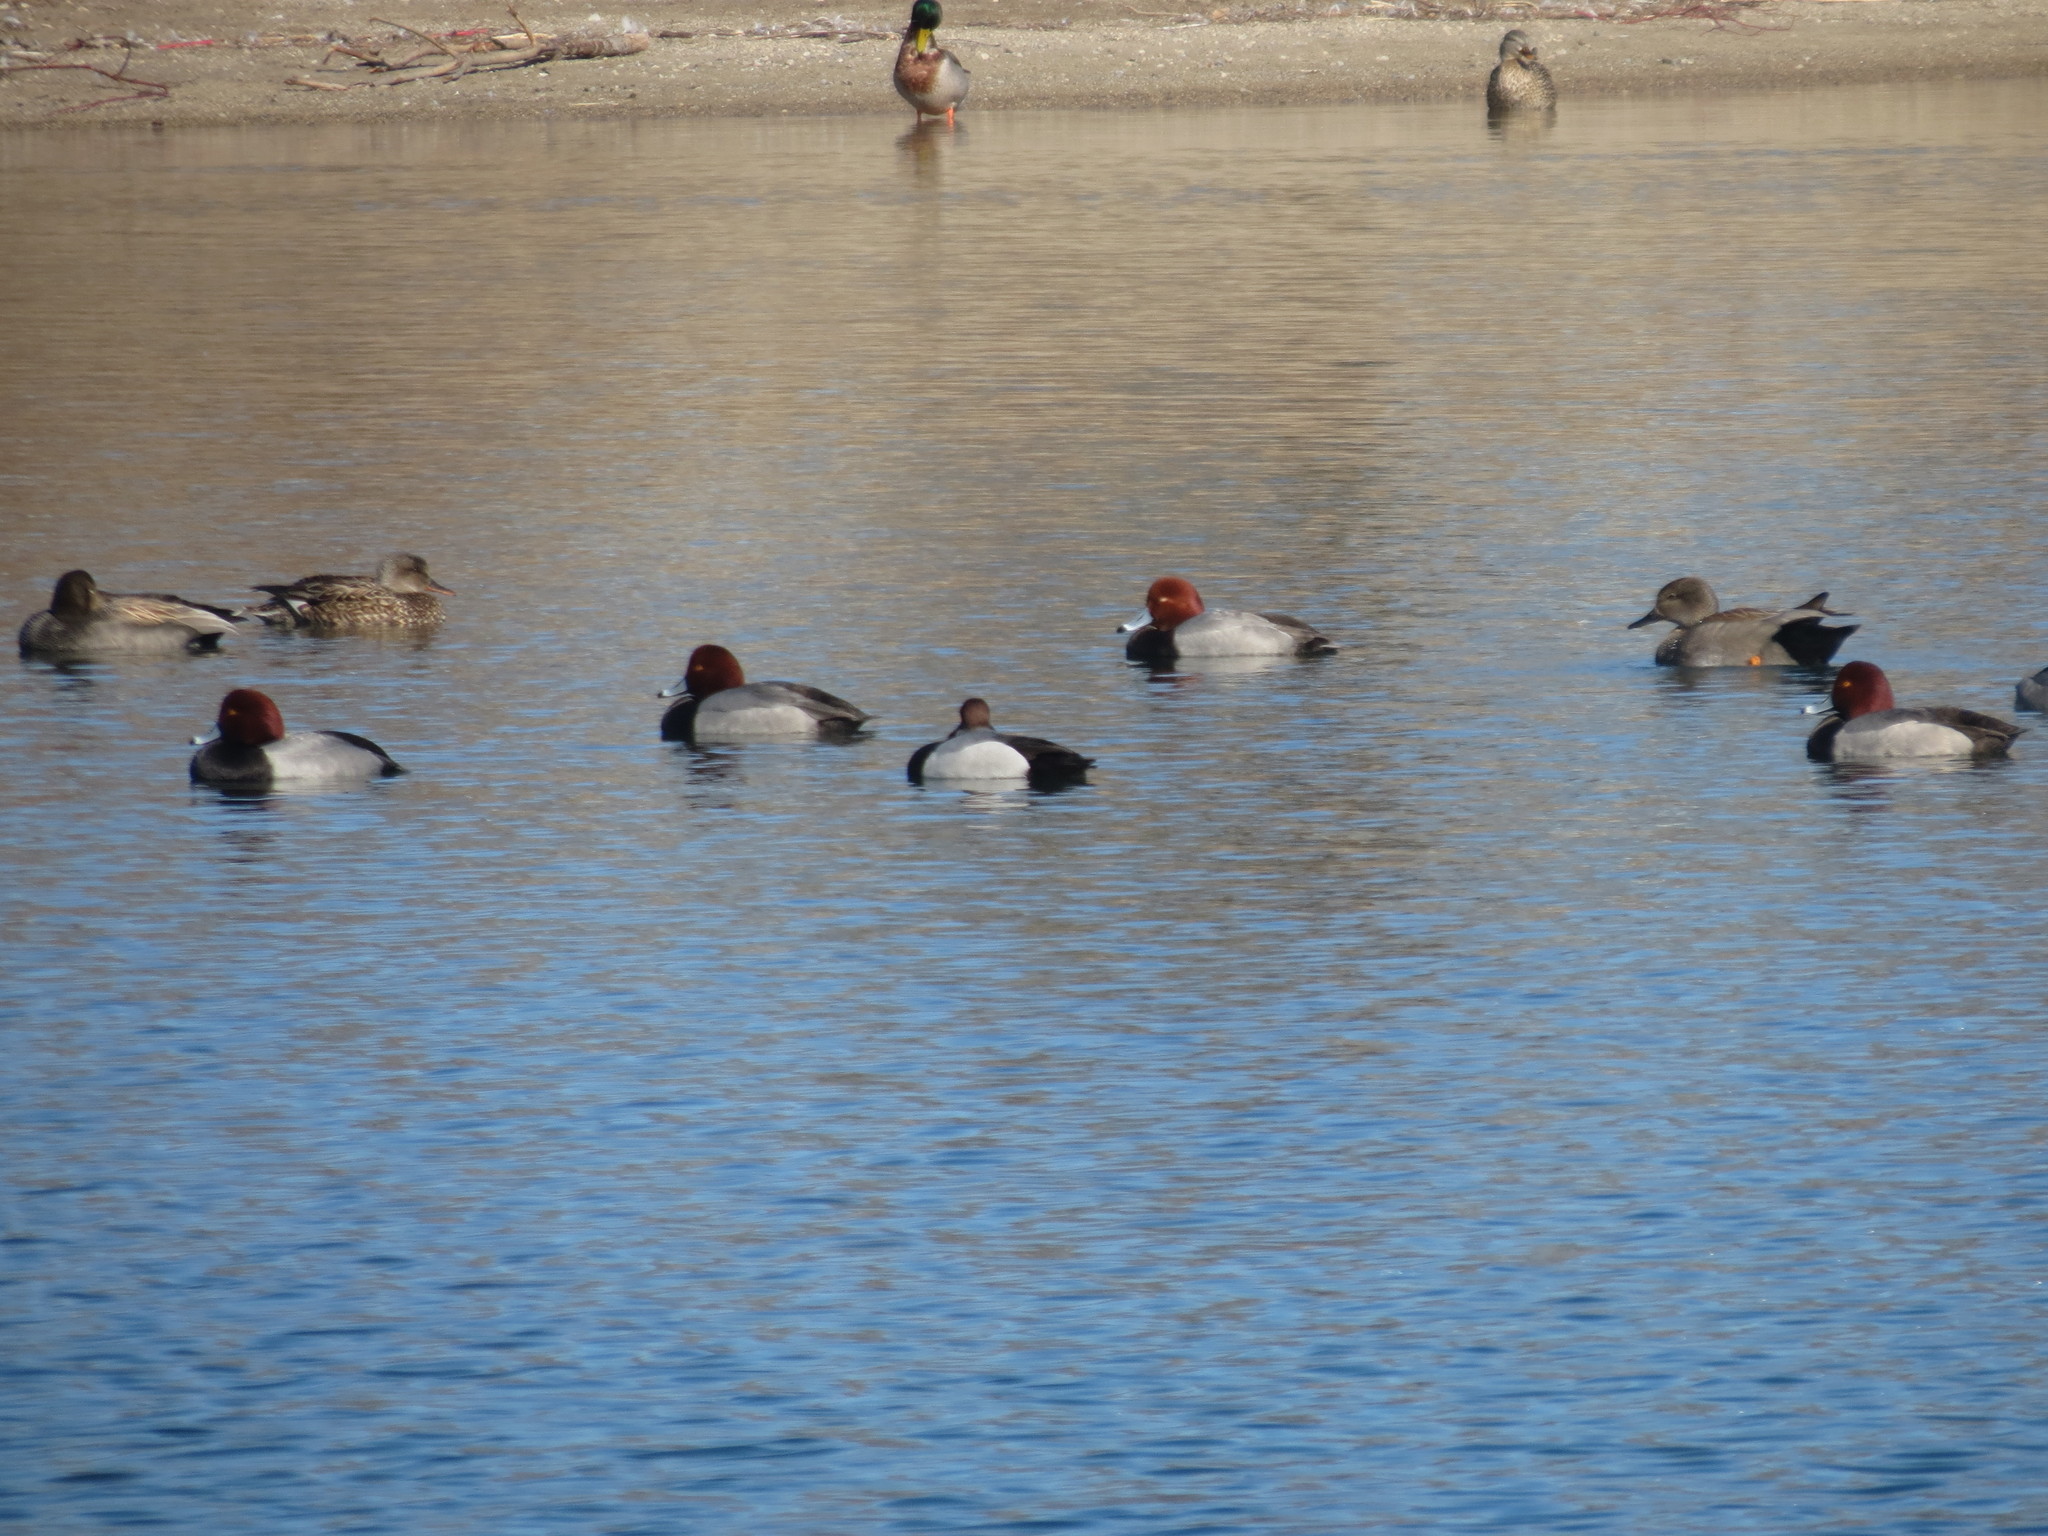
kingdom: Animalia
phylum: Chordata
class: Aves
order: Anseriformes
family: Anatidae
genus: Aythya
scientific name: Aythya americana
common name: Redhead
